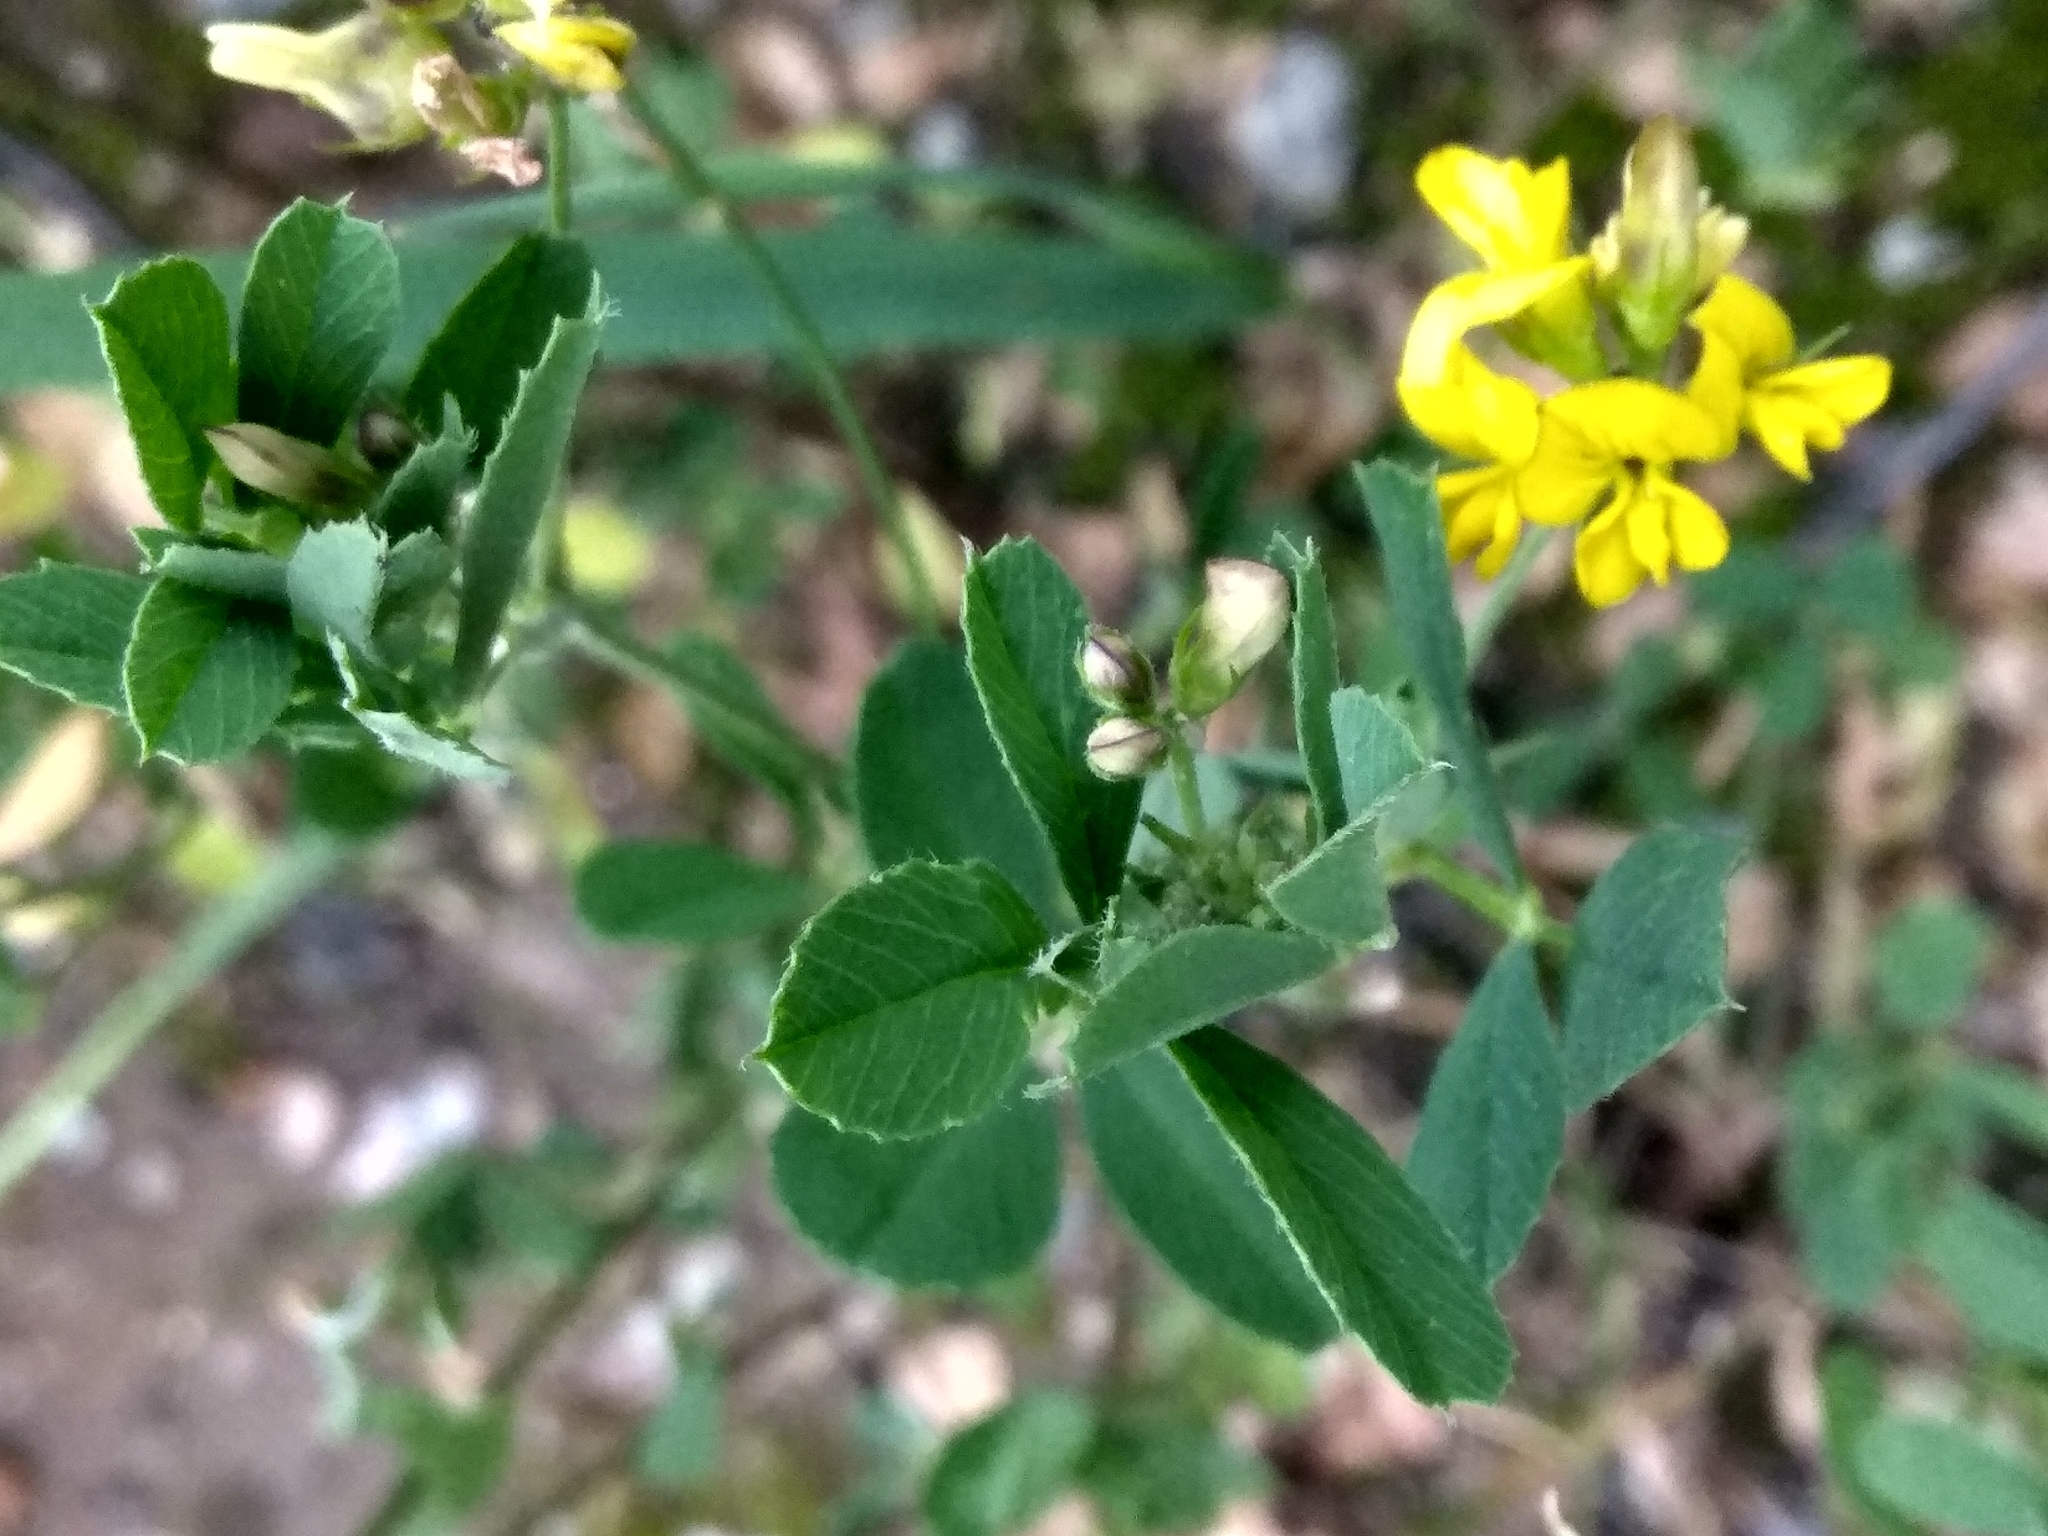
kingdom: Plantae
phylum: Tracheophyta
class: Magnoliopsida
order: Fabales
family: Fabaceae
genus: Medicago
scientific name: Medicago falcata
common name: Sickle medick
